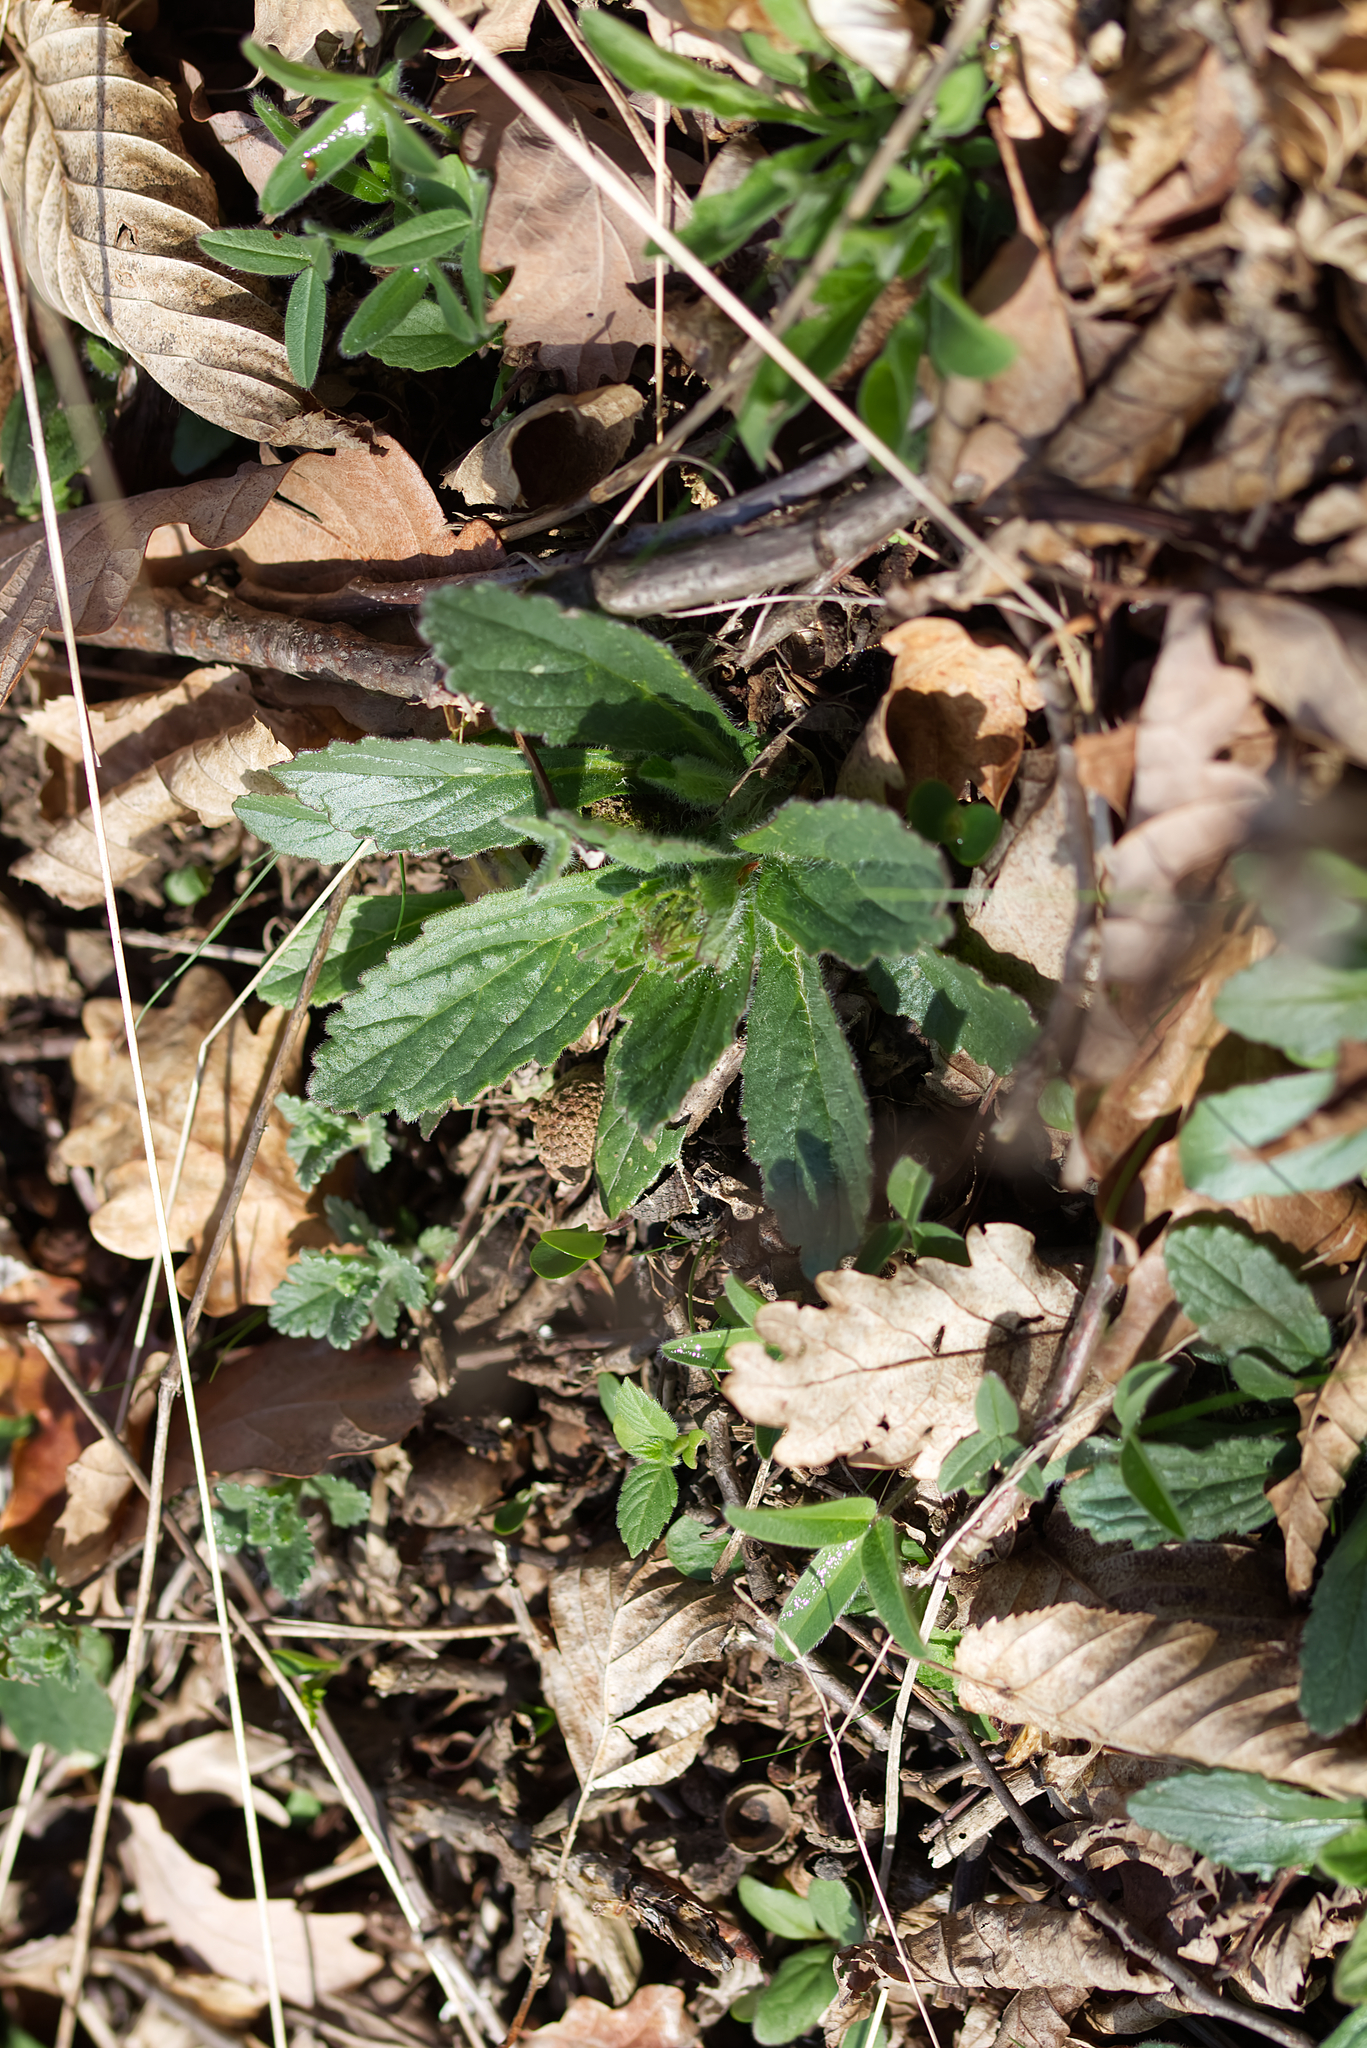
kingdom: Plantae
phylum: Tracheophyta
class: Magnoliopsida
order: Lamiales
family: Lamiaceae
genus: Ajuga
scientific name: Ajuga genevensis
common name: Blue bugle
